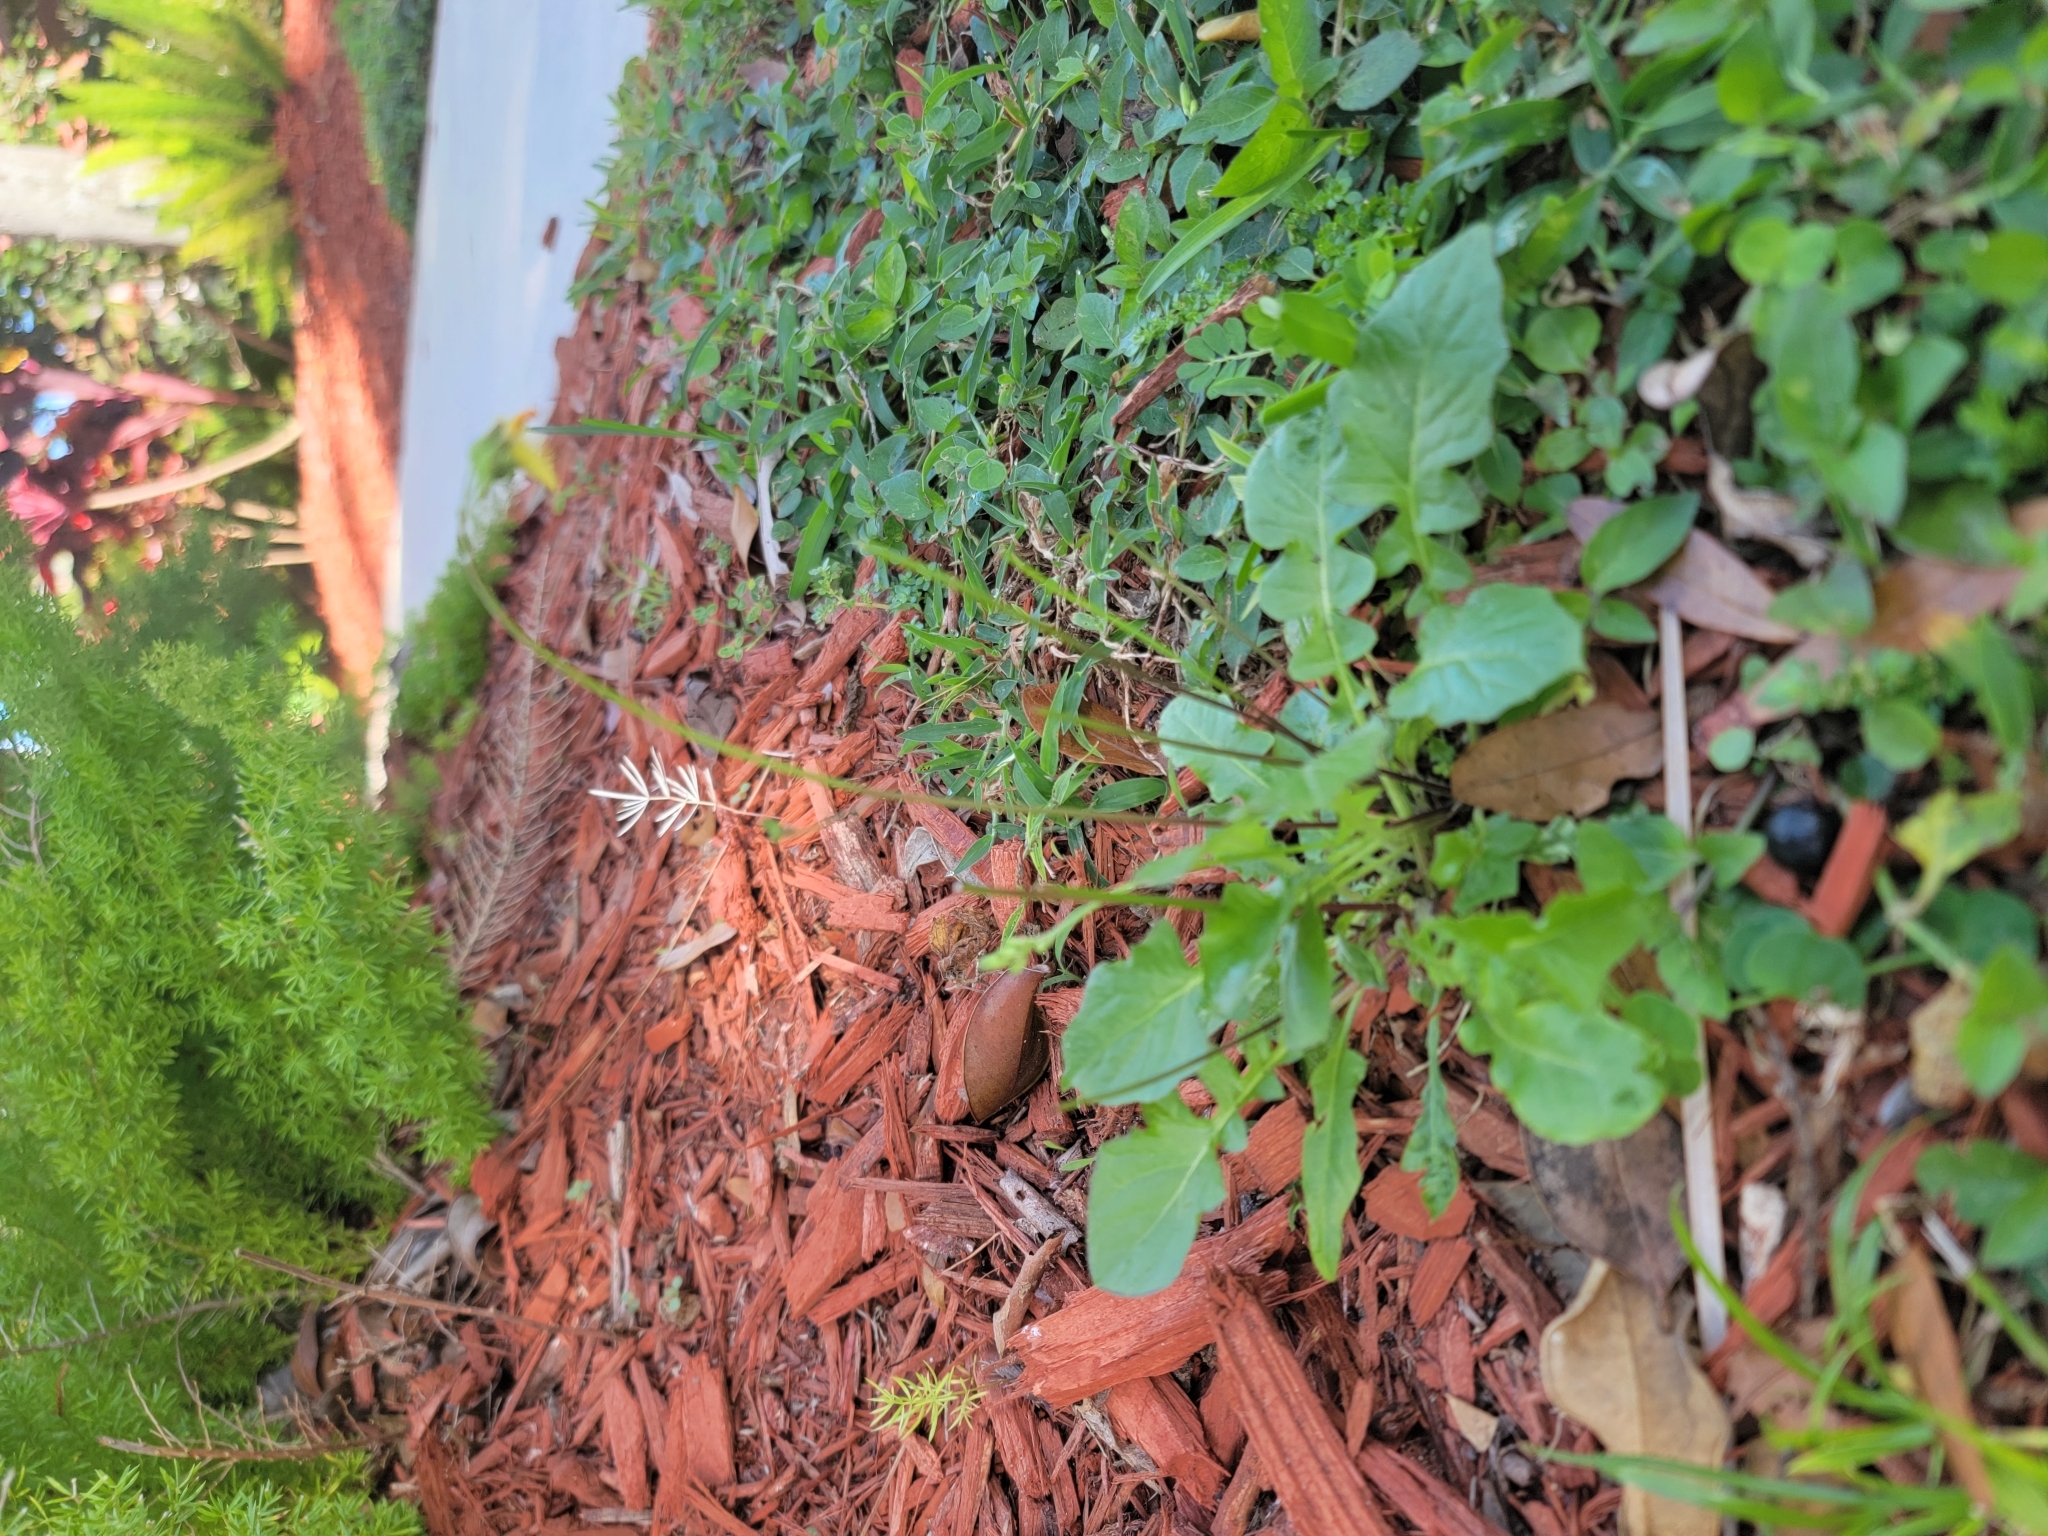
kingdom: Plantae
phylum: Tracheophyta
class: Magnoliopsida
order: Asterales
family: Asteraceae
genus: Youngia
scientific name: Youngia japonica
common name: Oriental false hawksbeard
